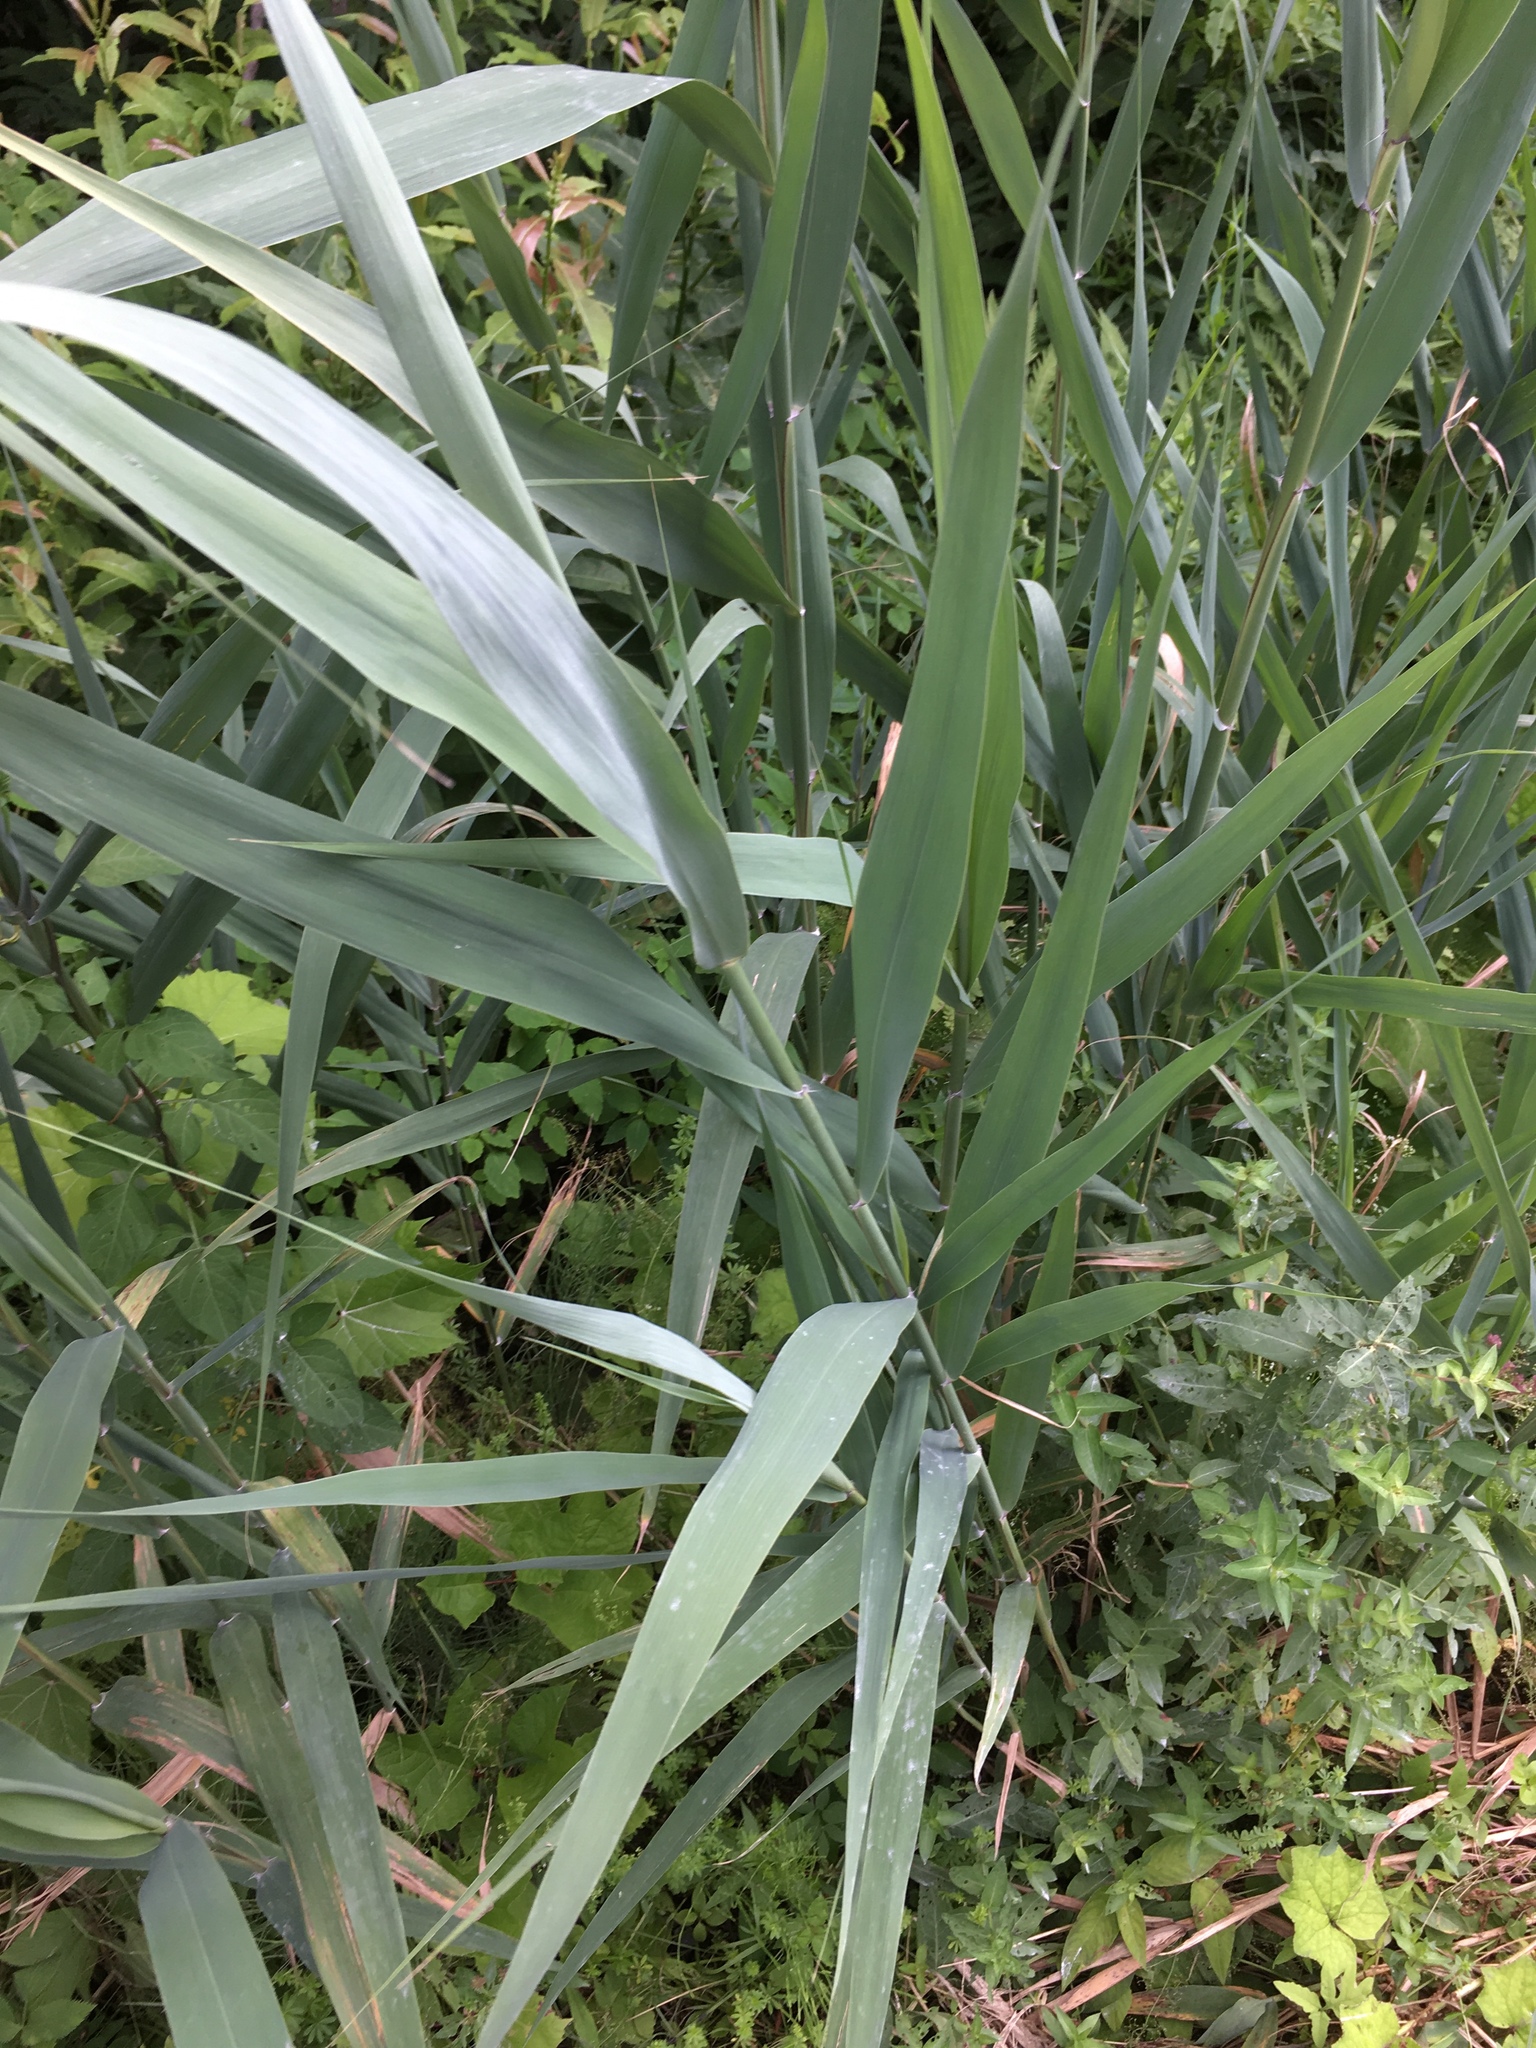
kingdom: Plantae
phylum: Tracheophyta
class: Liliopsida
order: Poales
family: Poaceae
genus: Phragmites
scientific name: Phragmites australis
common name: Common reed
